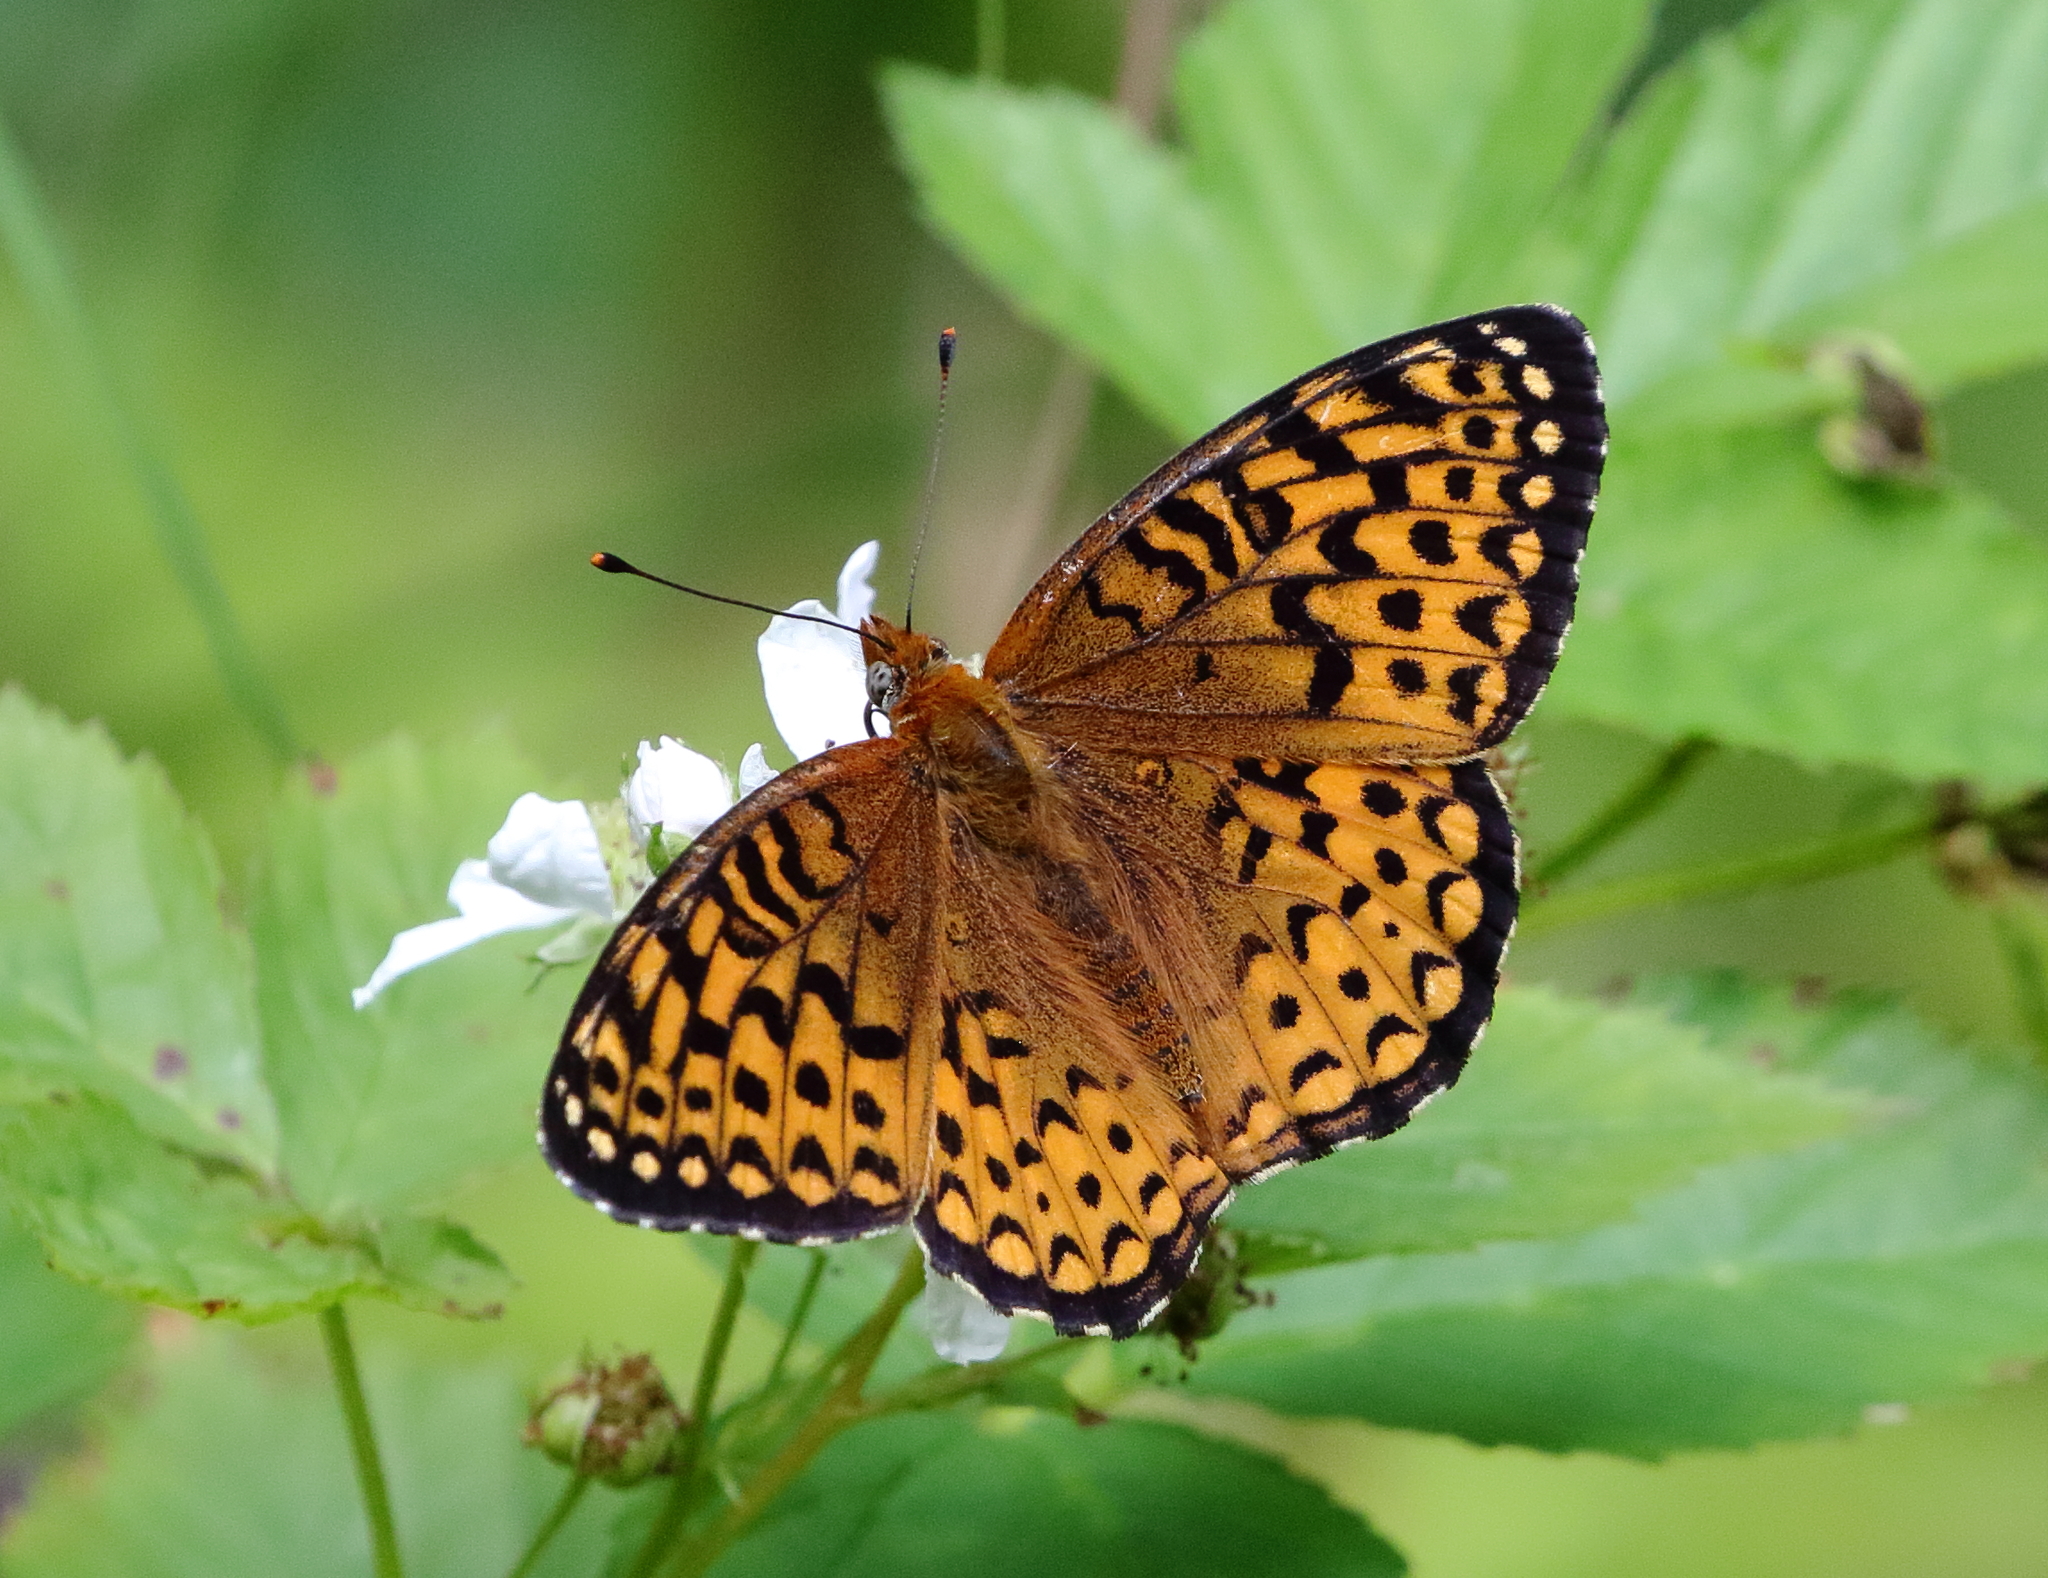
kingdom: Animalia
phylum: Arthropoda
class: Insecta
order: Lepidoptera
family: Nymphalidae
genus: Speyeria
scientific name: Speyeria atlantis
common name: Atlantis fritillary
